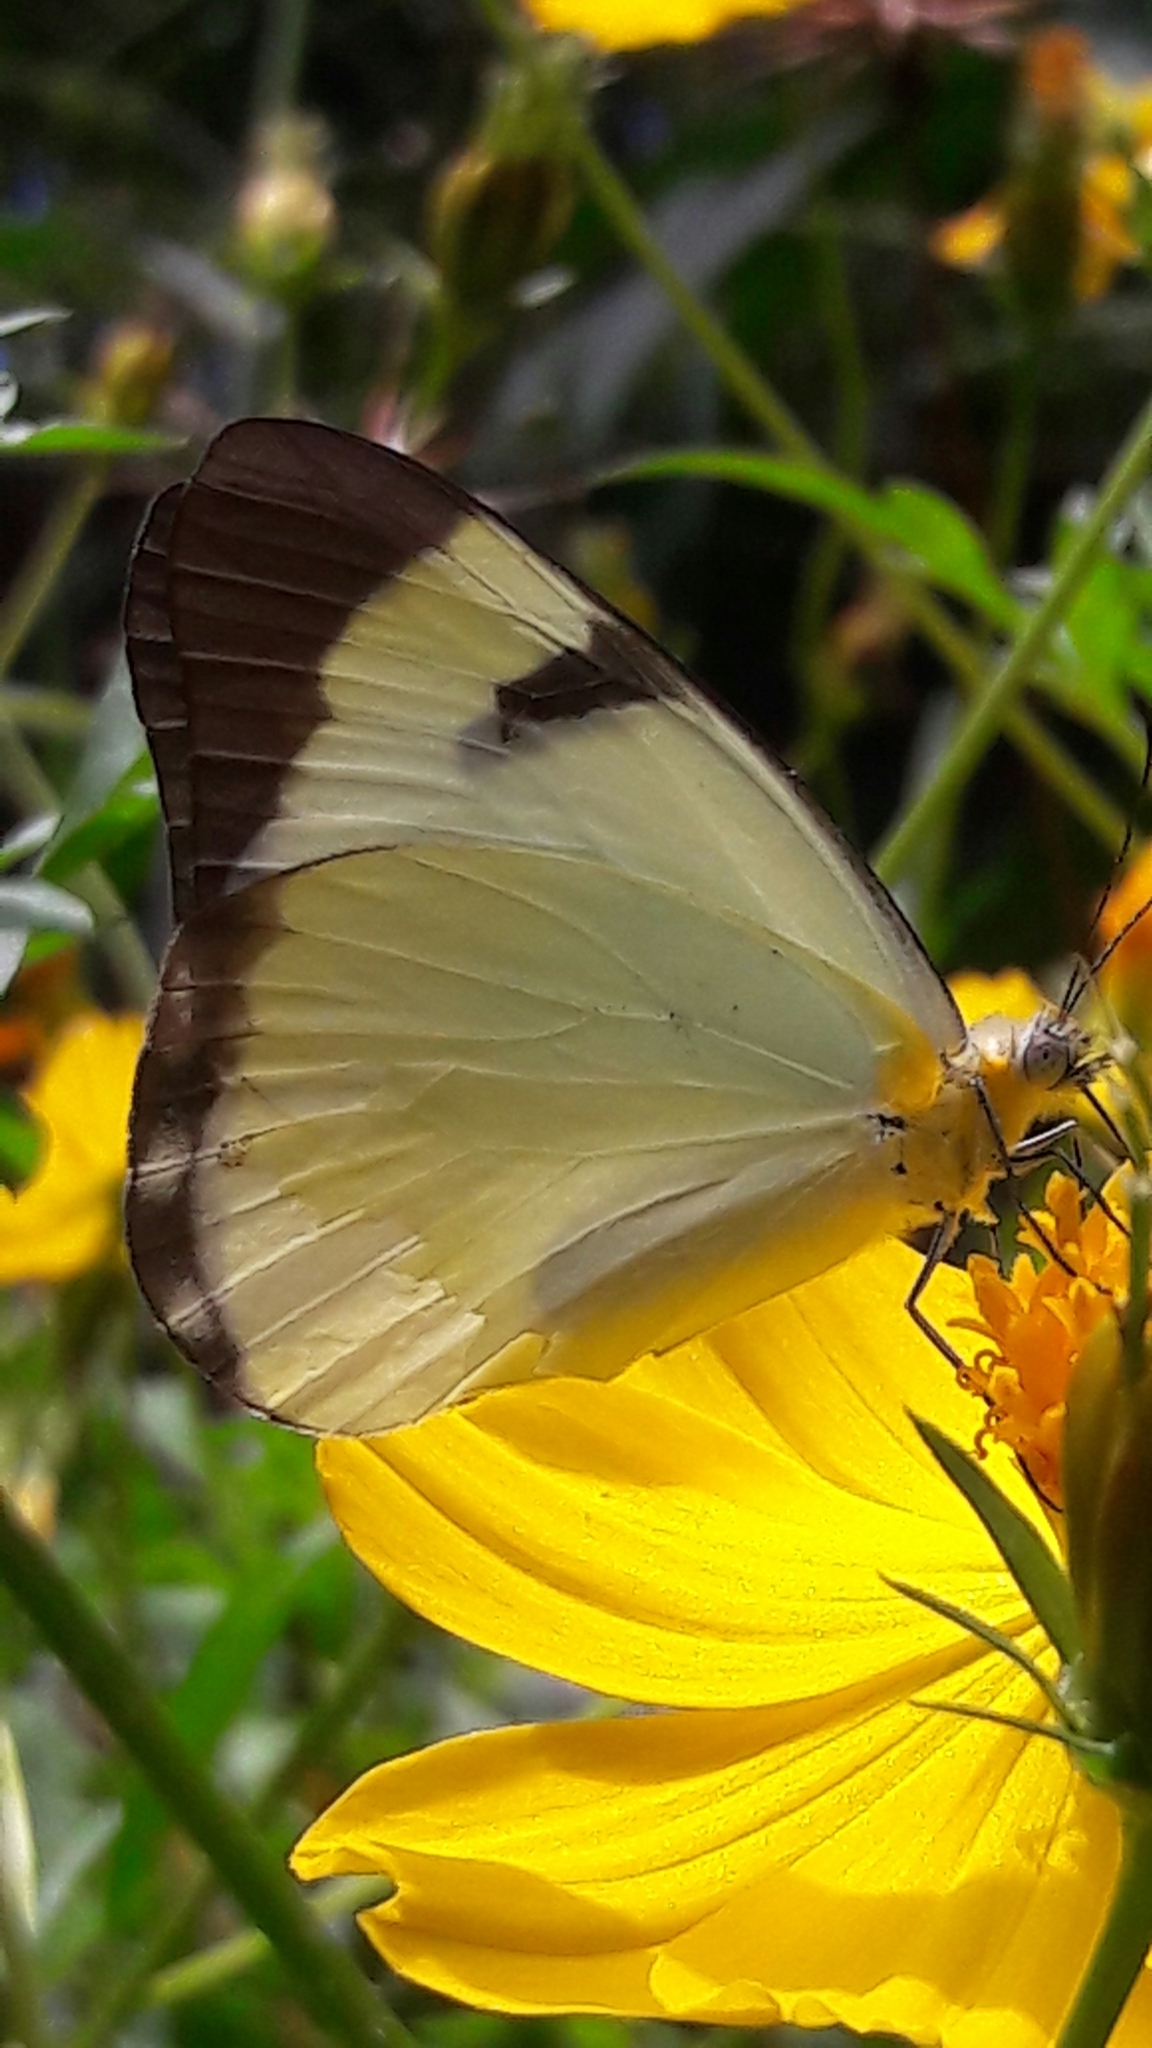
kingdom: Animalia
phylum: Arthropoda
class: Insecta
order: Lepidoptera
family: Pieridae
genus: Melete
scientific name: Melete lycimnia
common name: Common melwhite
